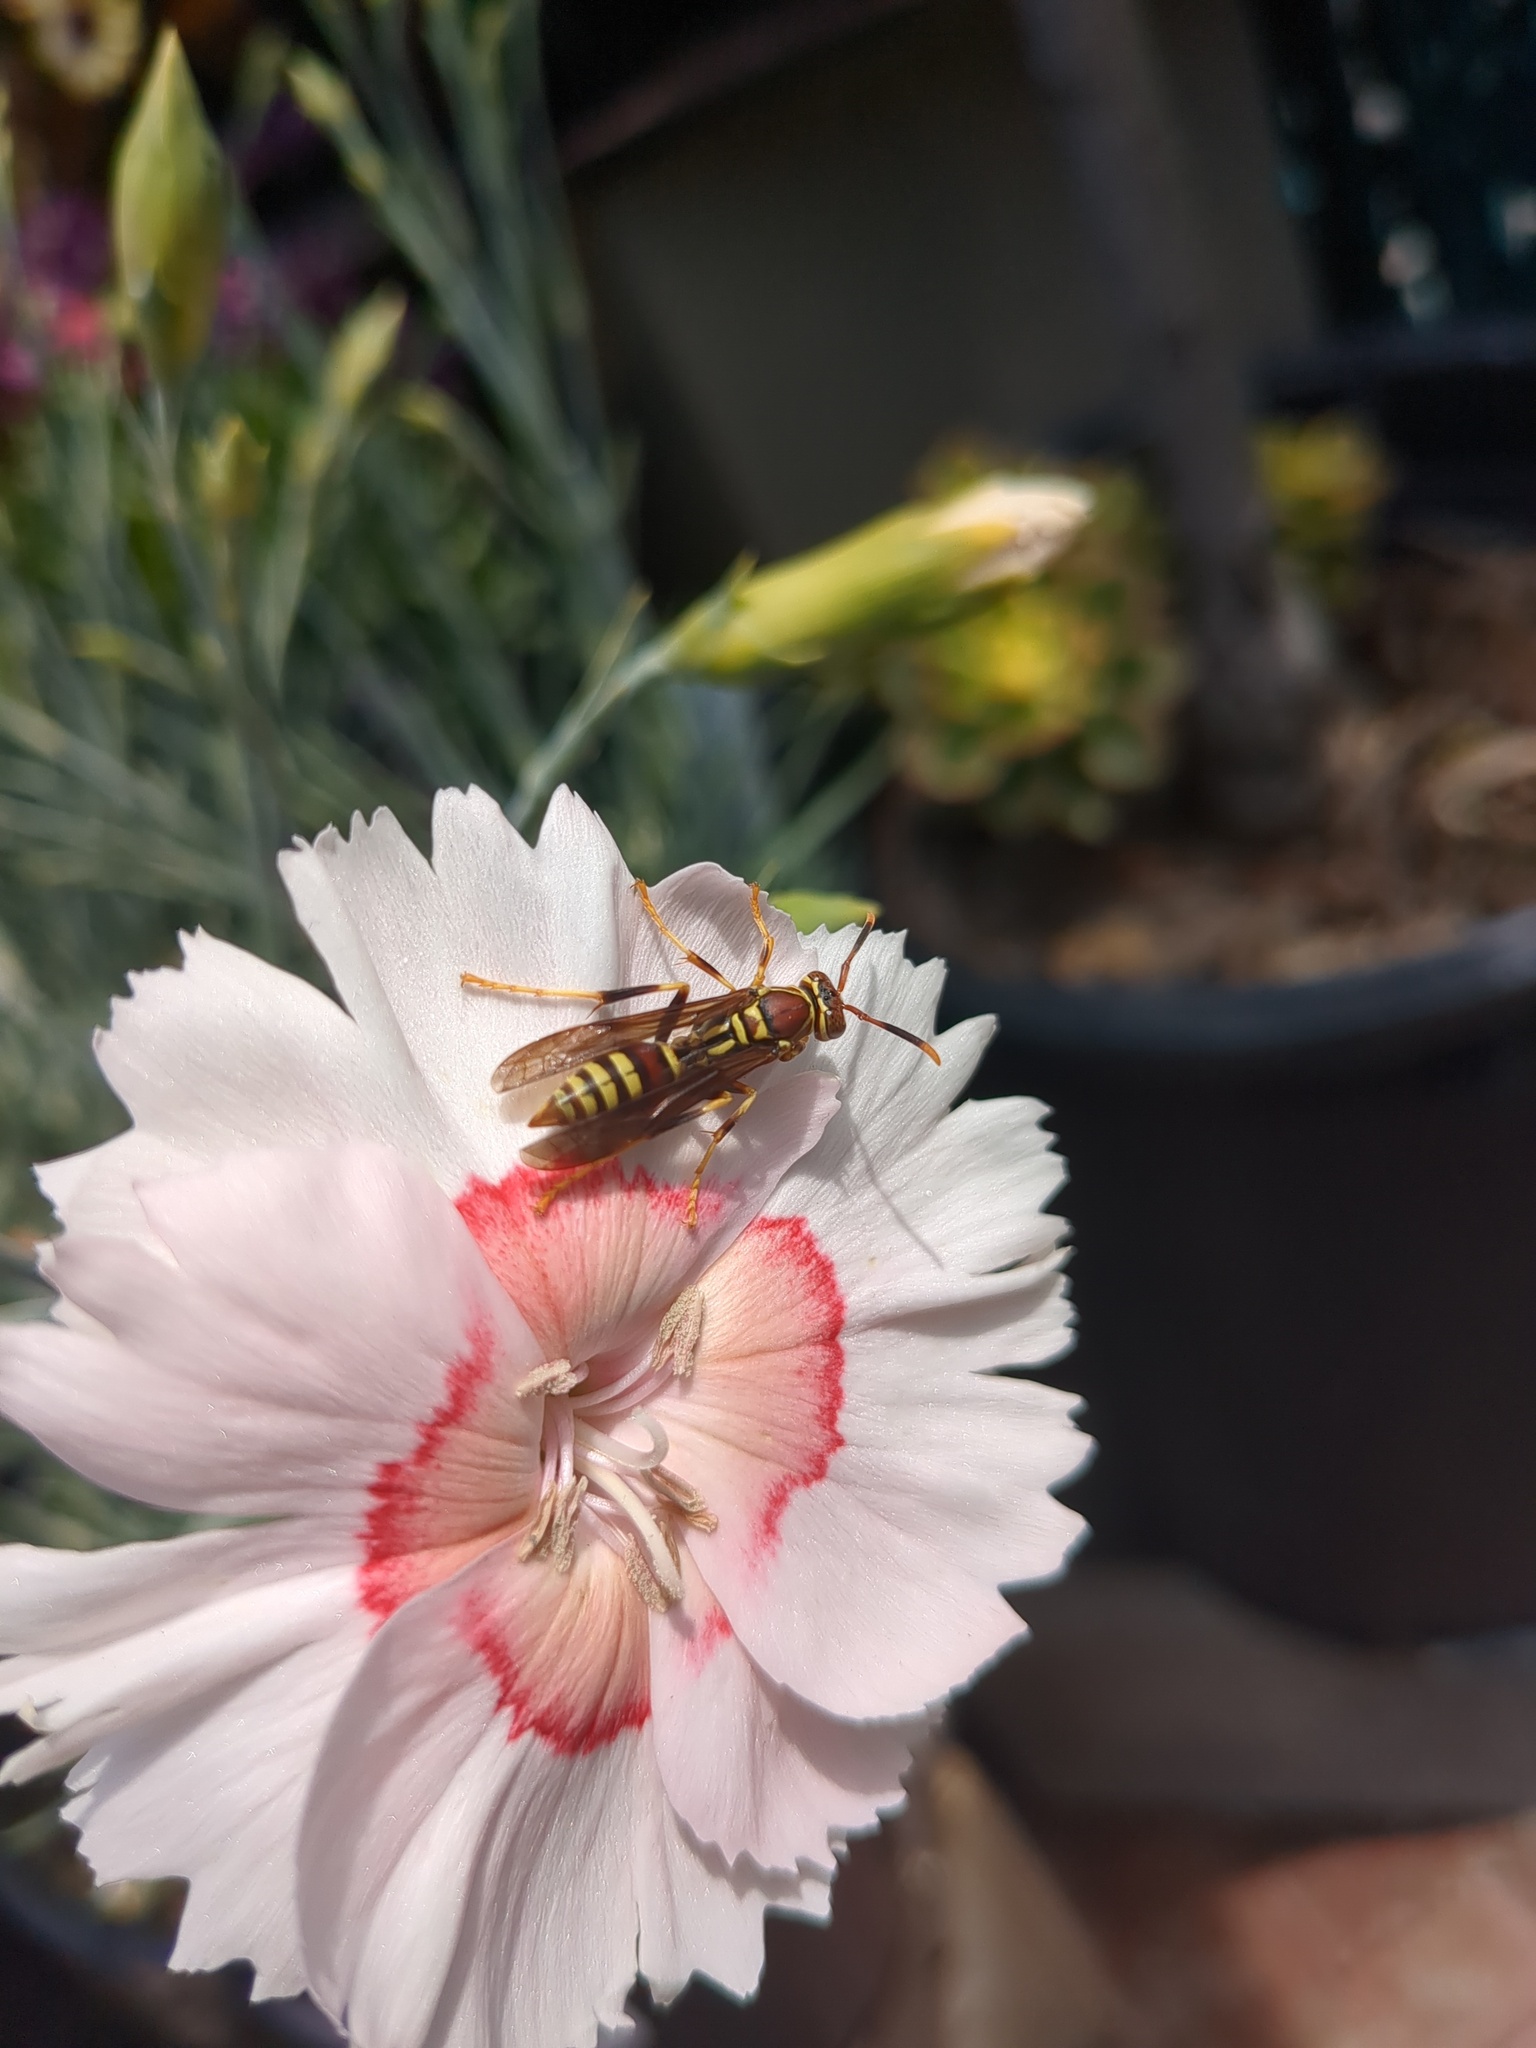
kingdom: Animalia
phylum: Arthropoda
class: Insecta
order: Hymenoptera
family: Eumenidae
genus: Polistes
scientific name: Polistes exclamans
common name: Paper wasp
